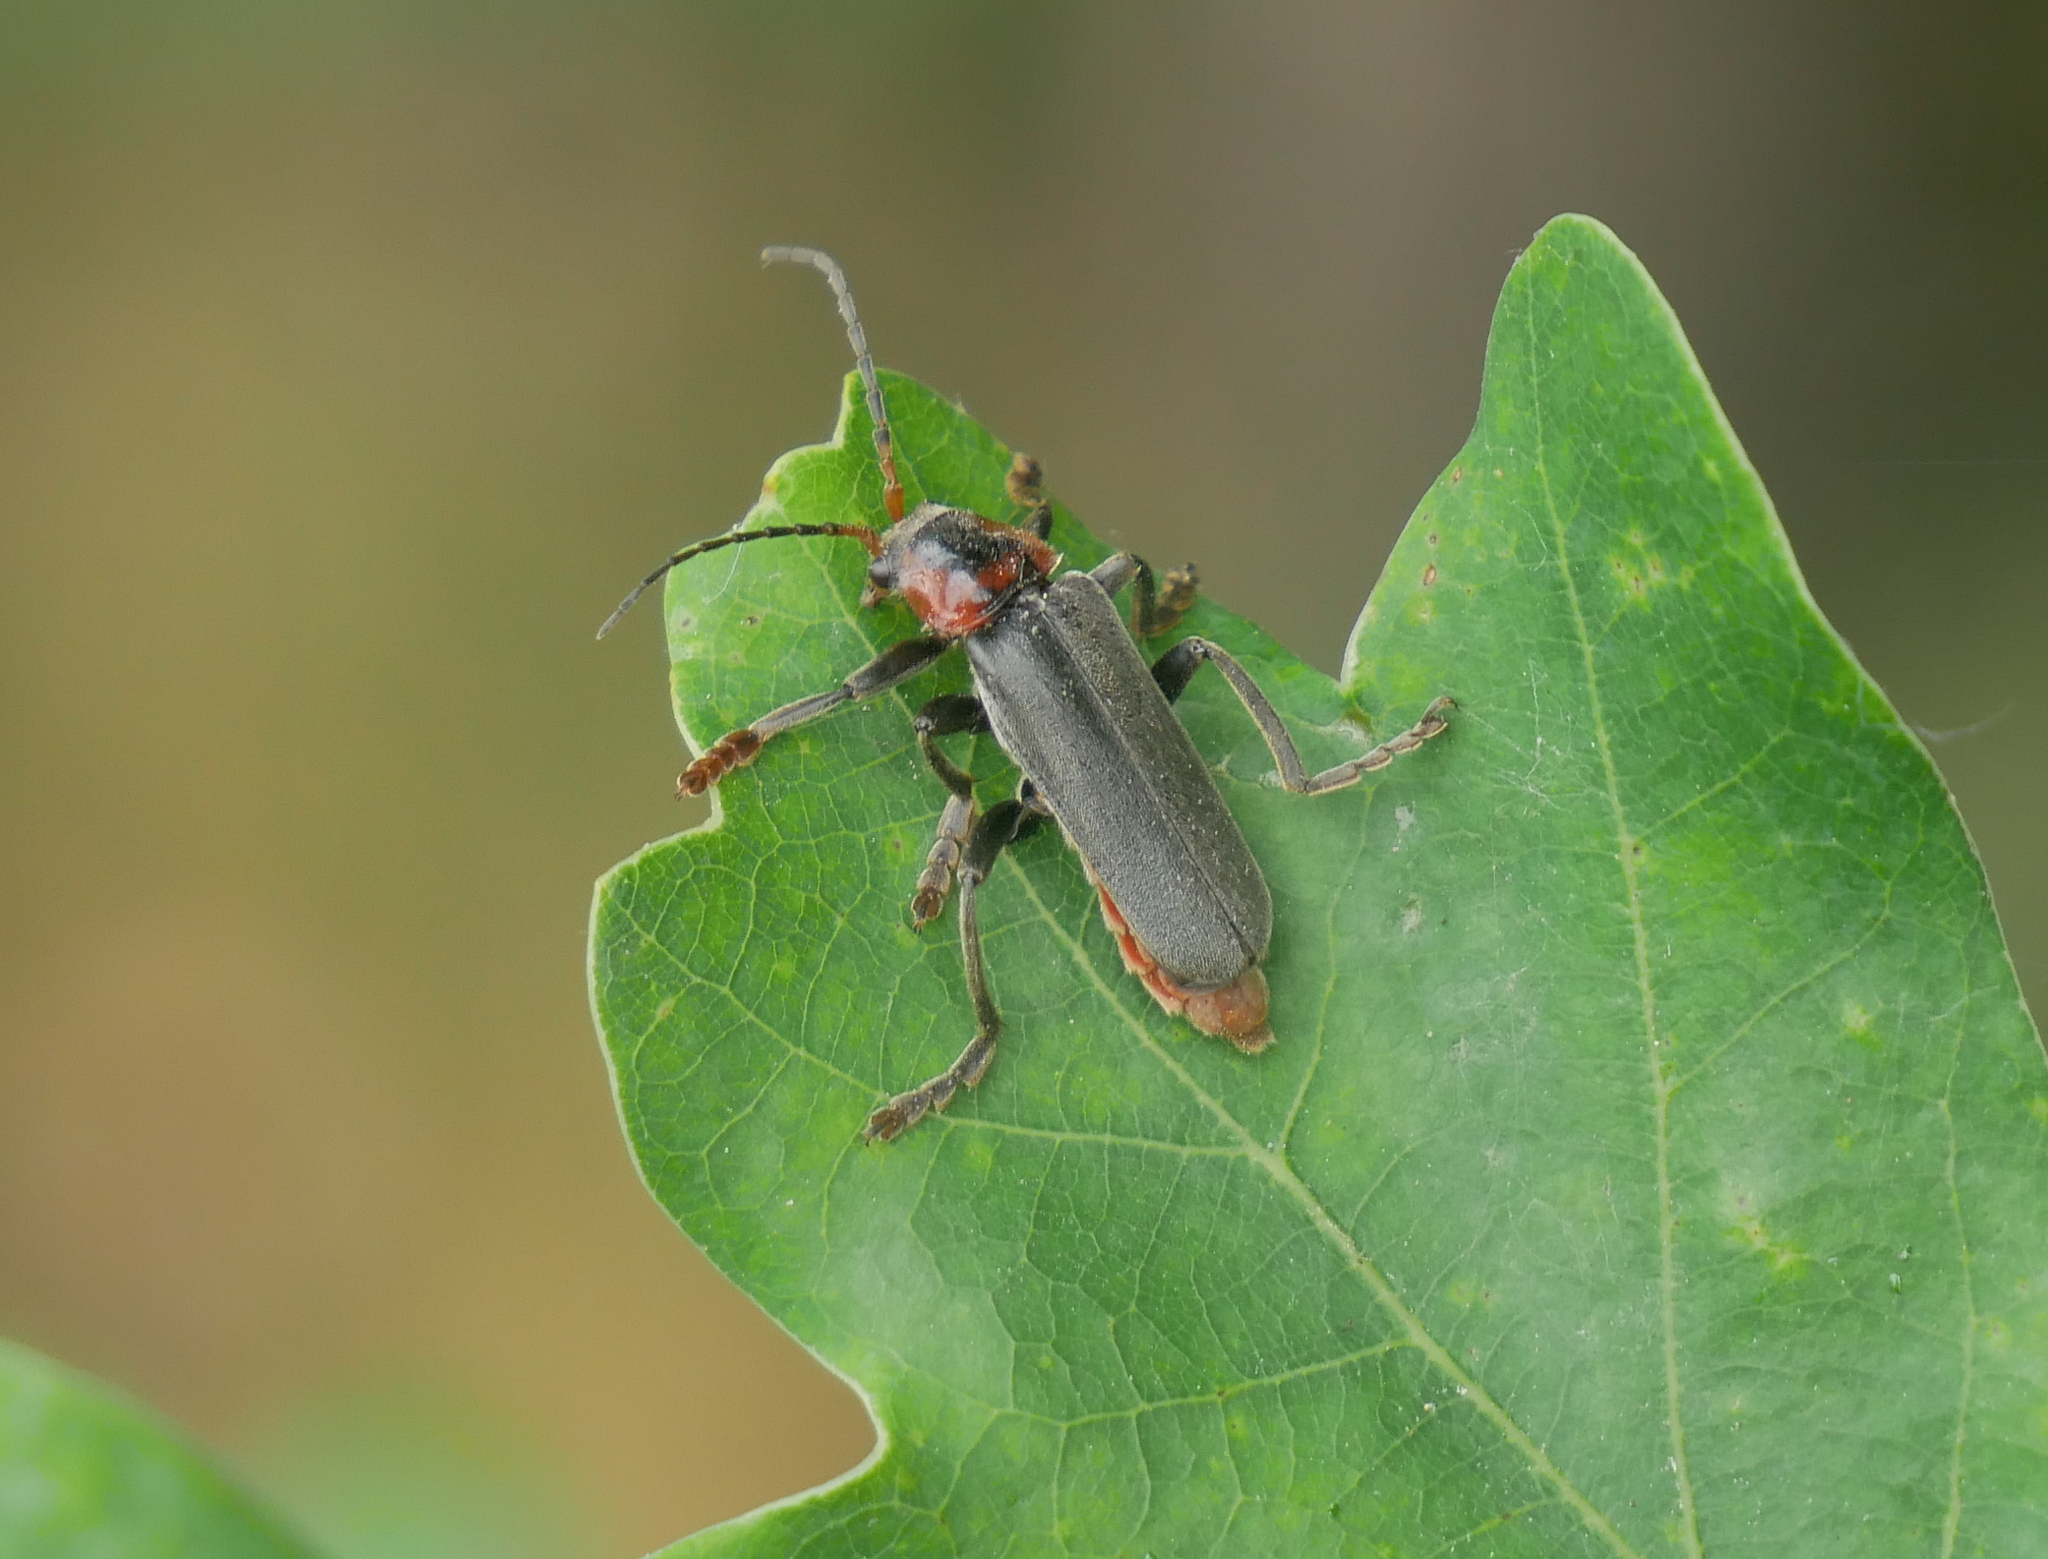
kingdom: Animalia
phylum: Arthropoda
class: Insecta
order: Coleoptera
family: Cantharidae
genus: Cantharis
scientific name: Cantharis fusca
